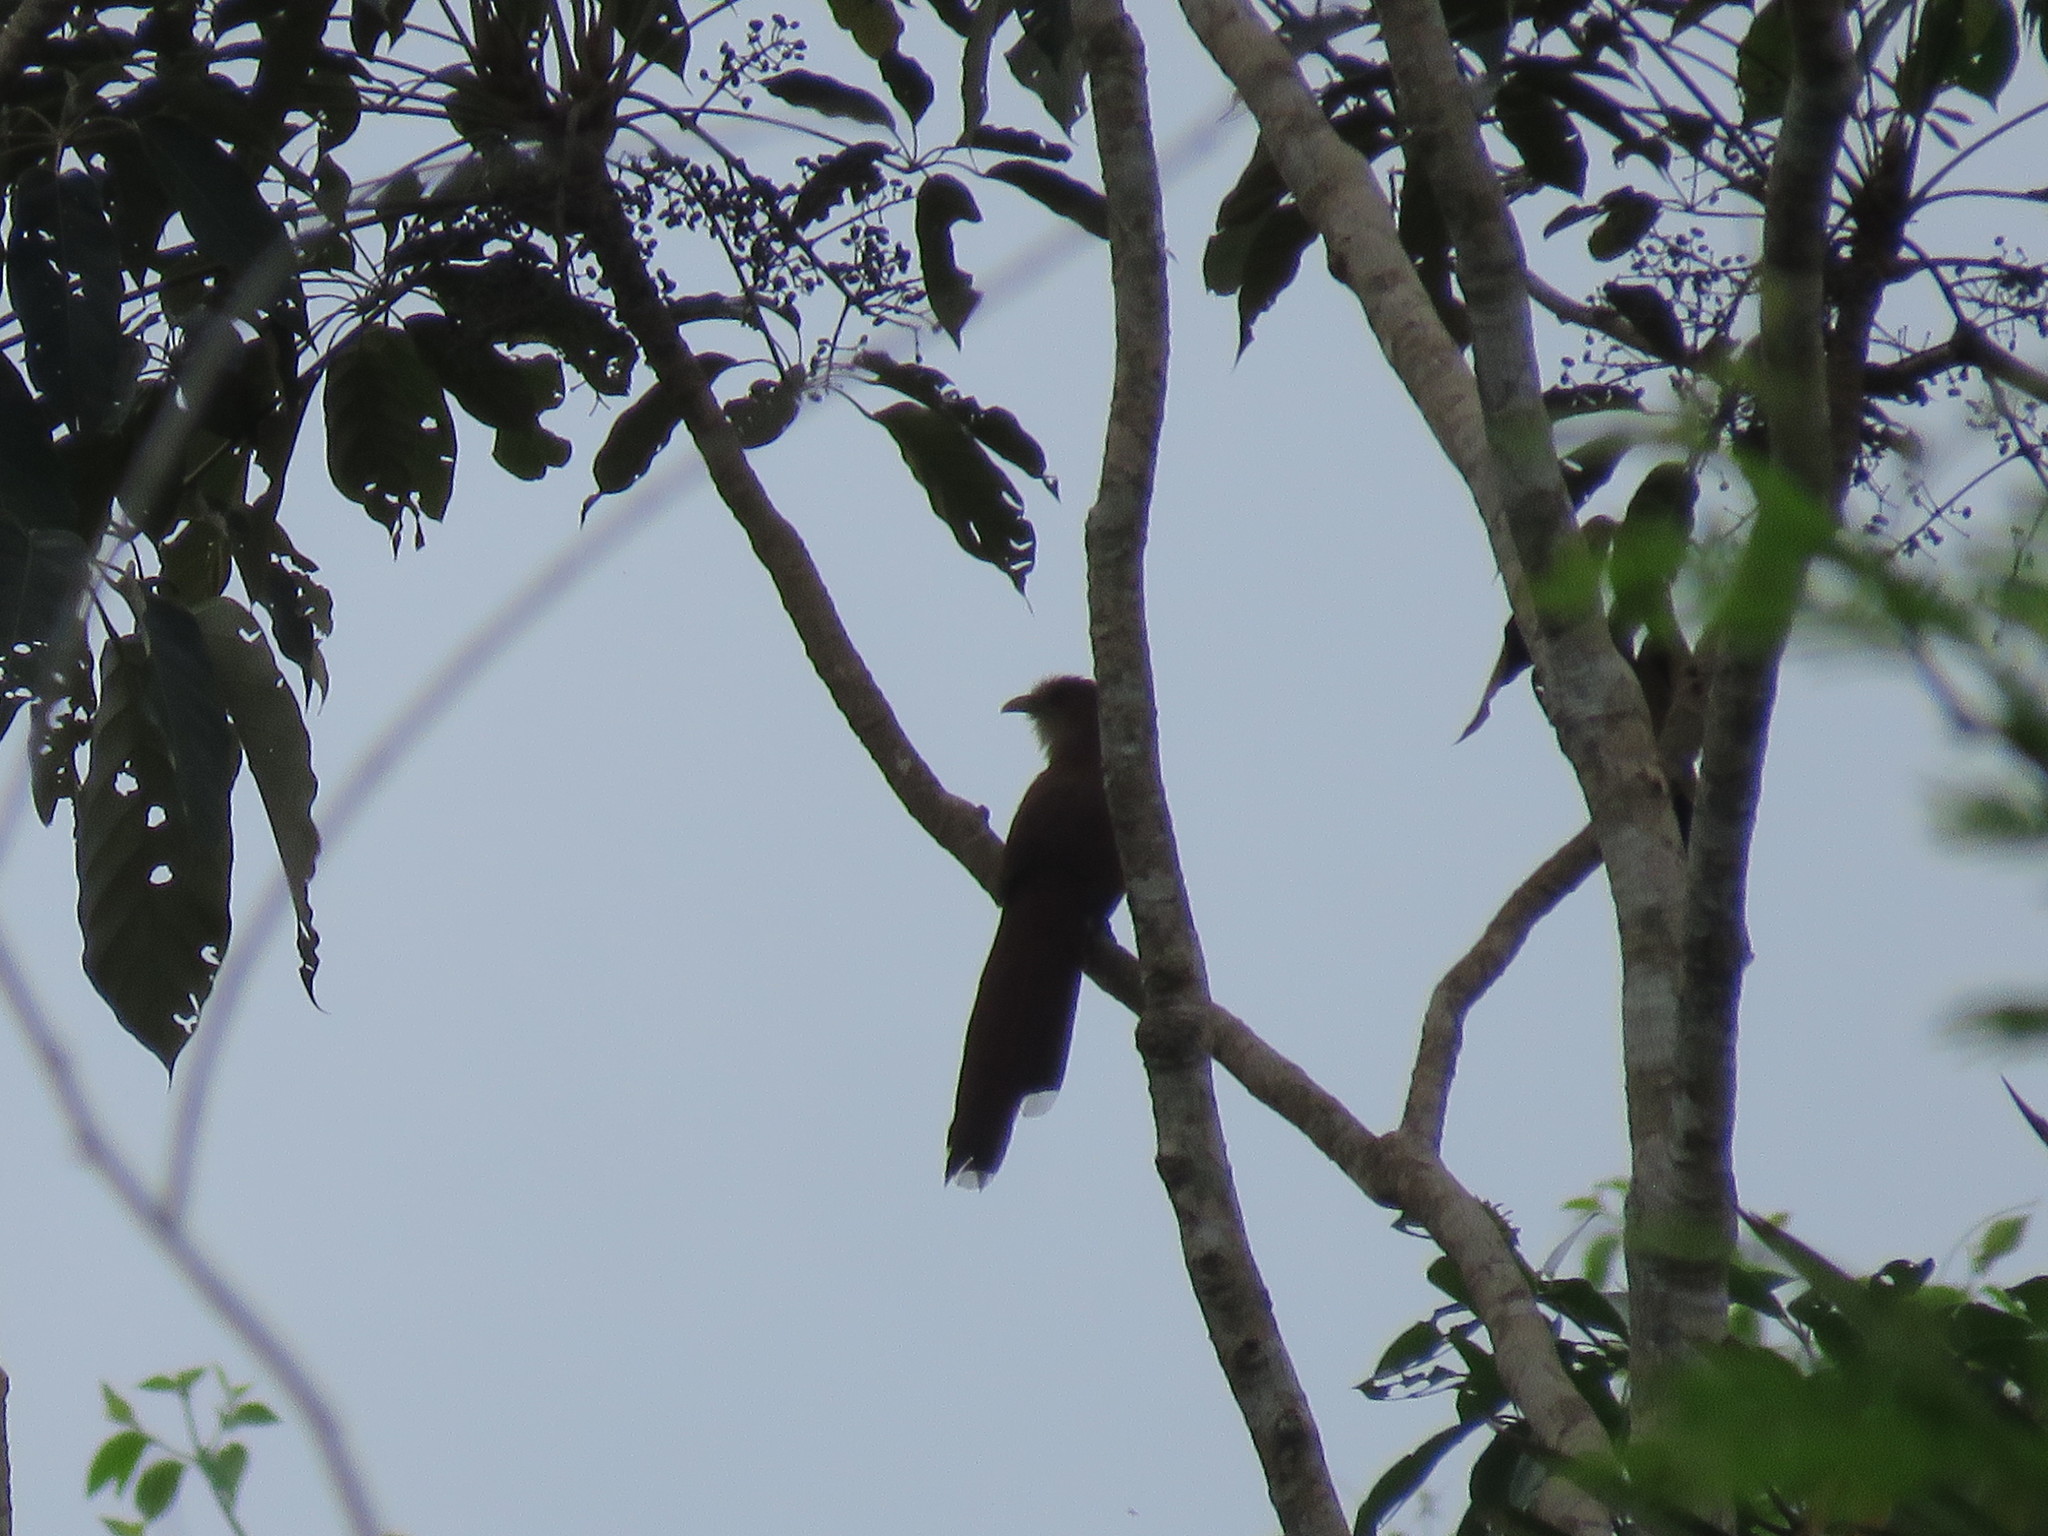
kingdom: Animalia
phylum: Chordata
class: Aves
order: Cuculiformes
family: Cuculidae
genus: Piaya
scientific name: Piaya cayana
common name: Squirrel cuckoo
